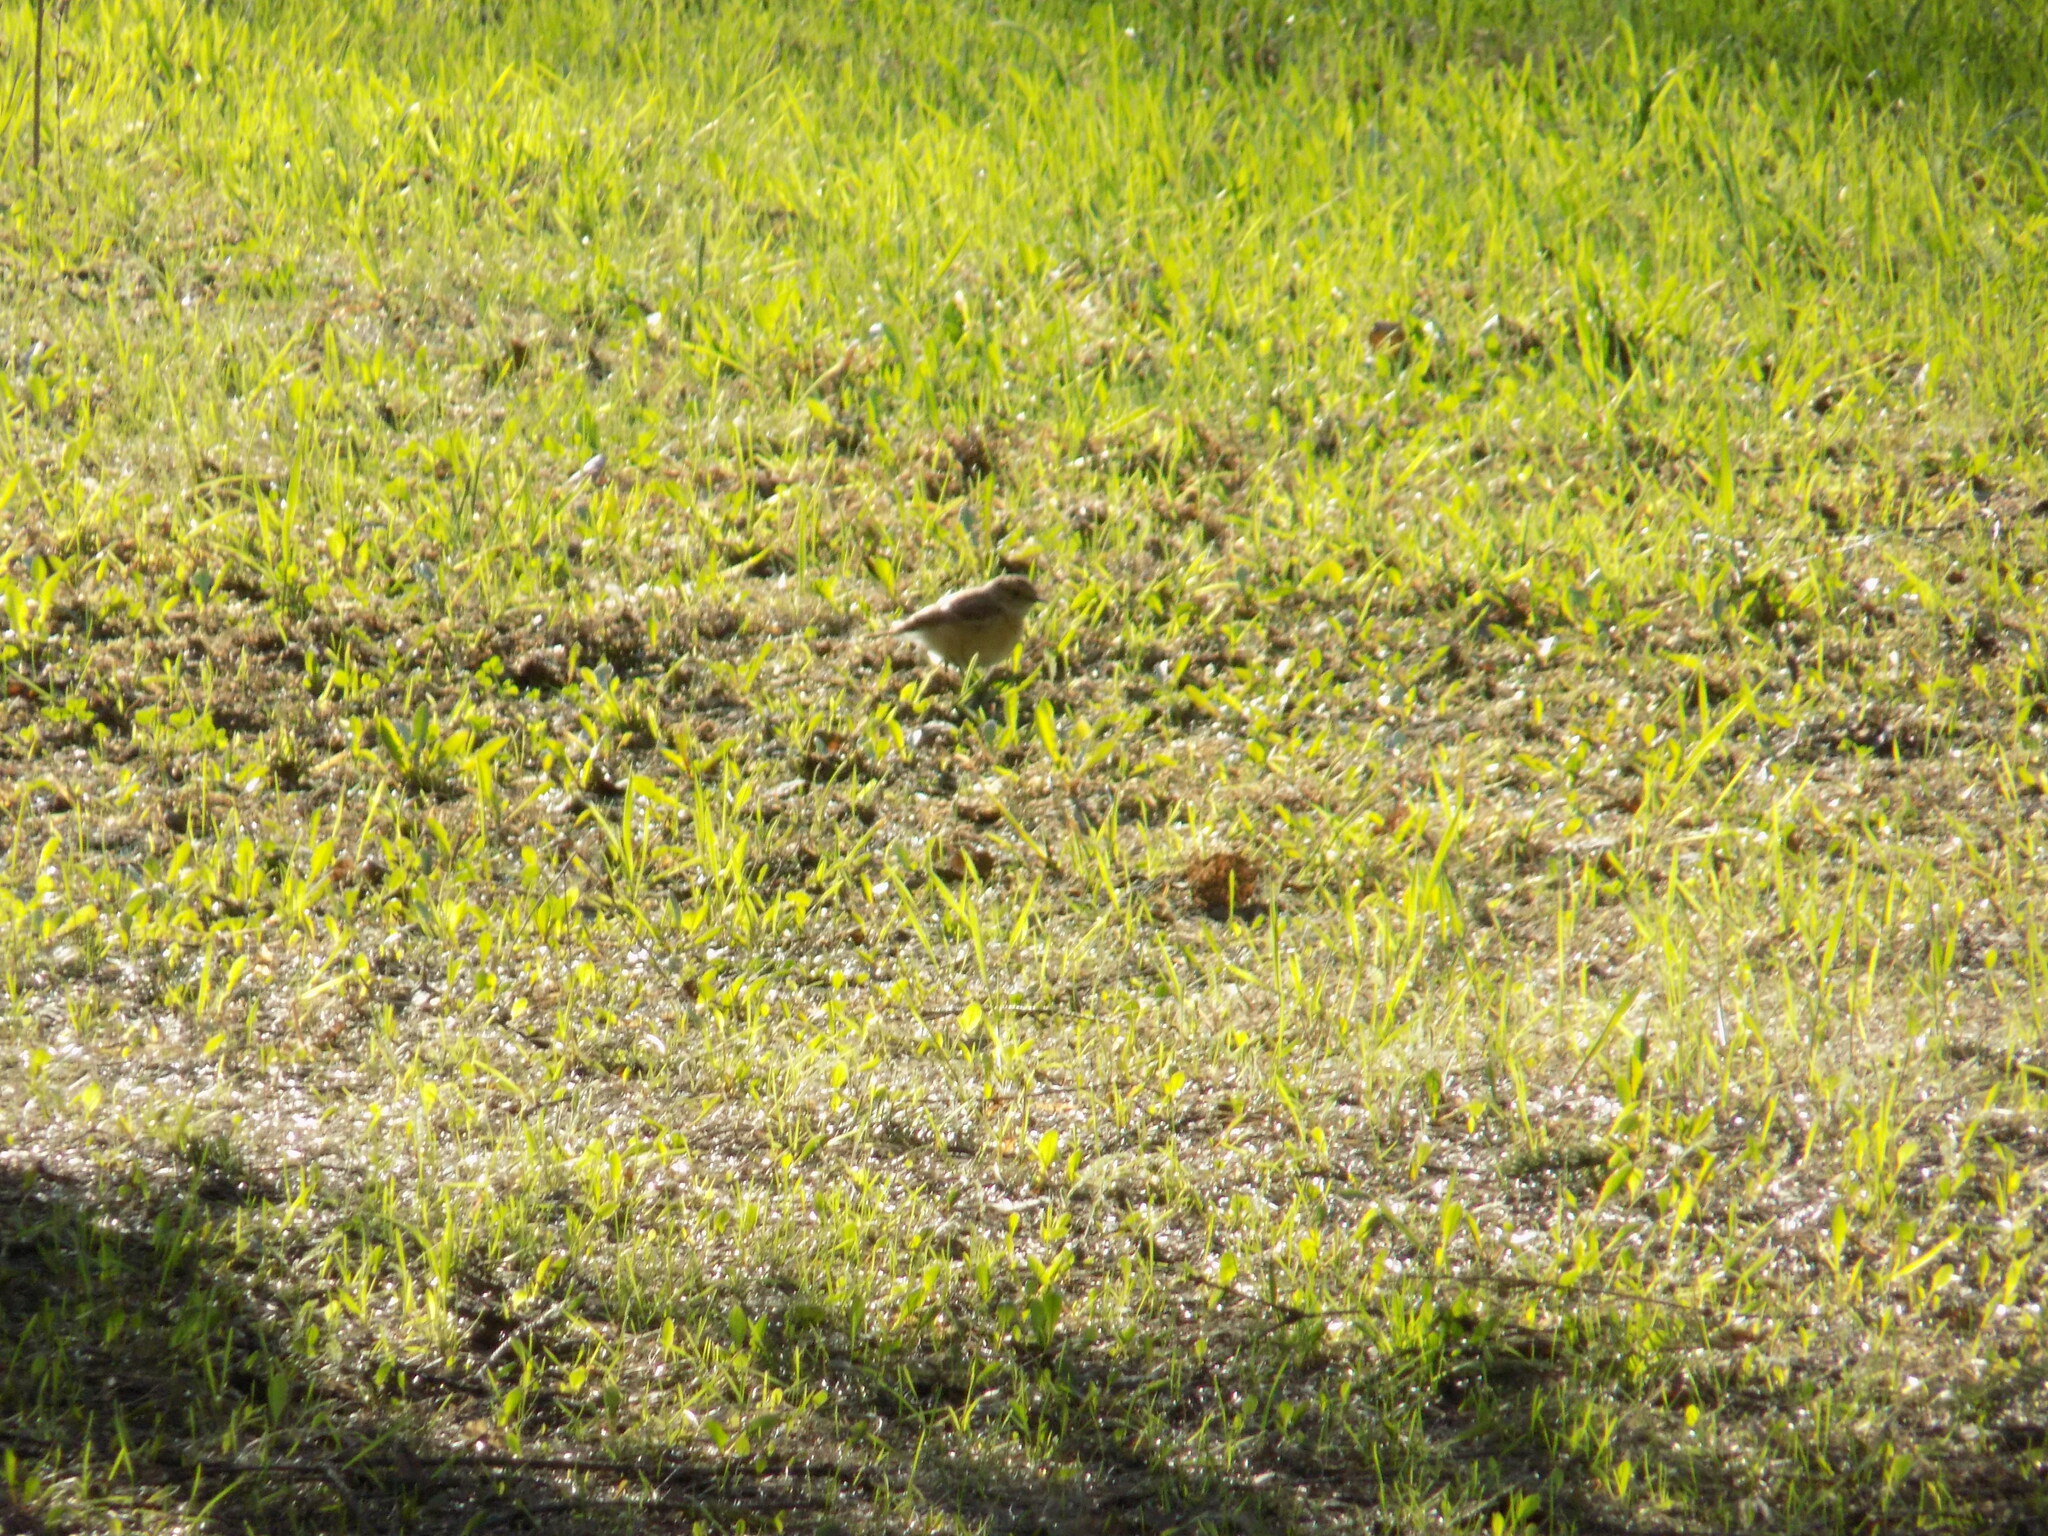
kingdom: Animalia
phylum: Chordata
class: Aves
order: Passeriformes
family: Muscicapidae
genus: Saxicola
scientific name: Saxicola maurus
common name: Siberian stonechat
